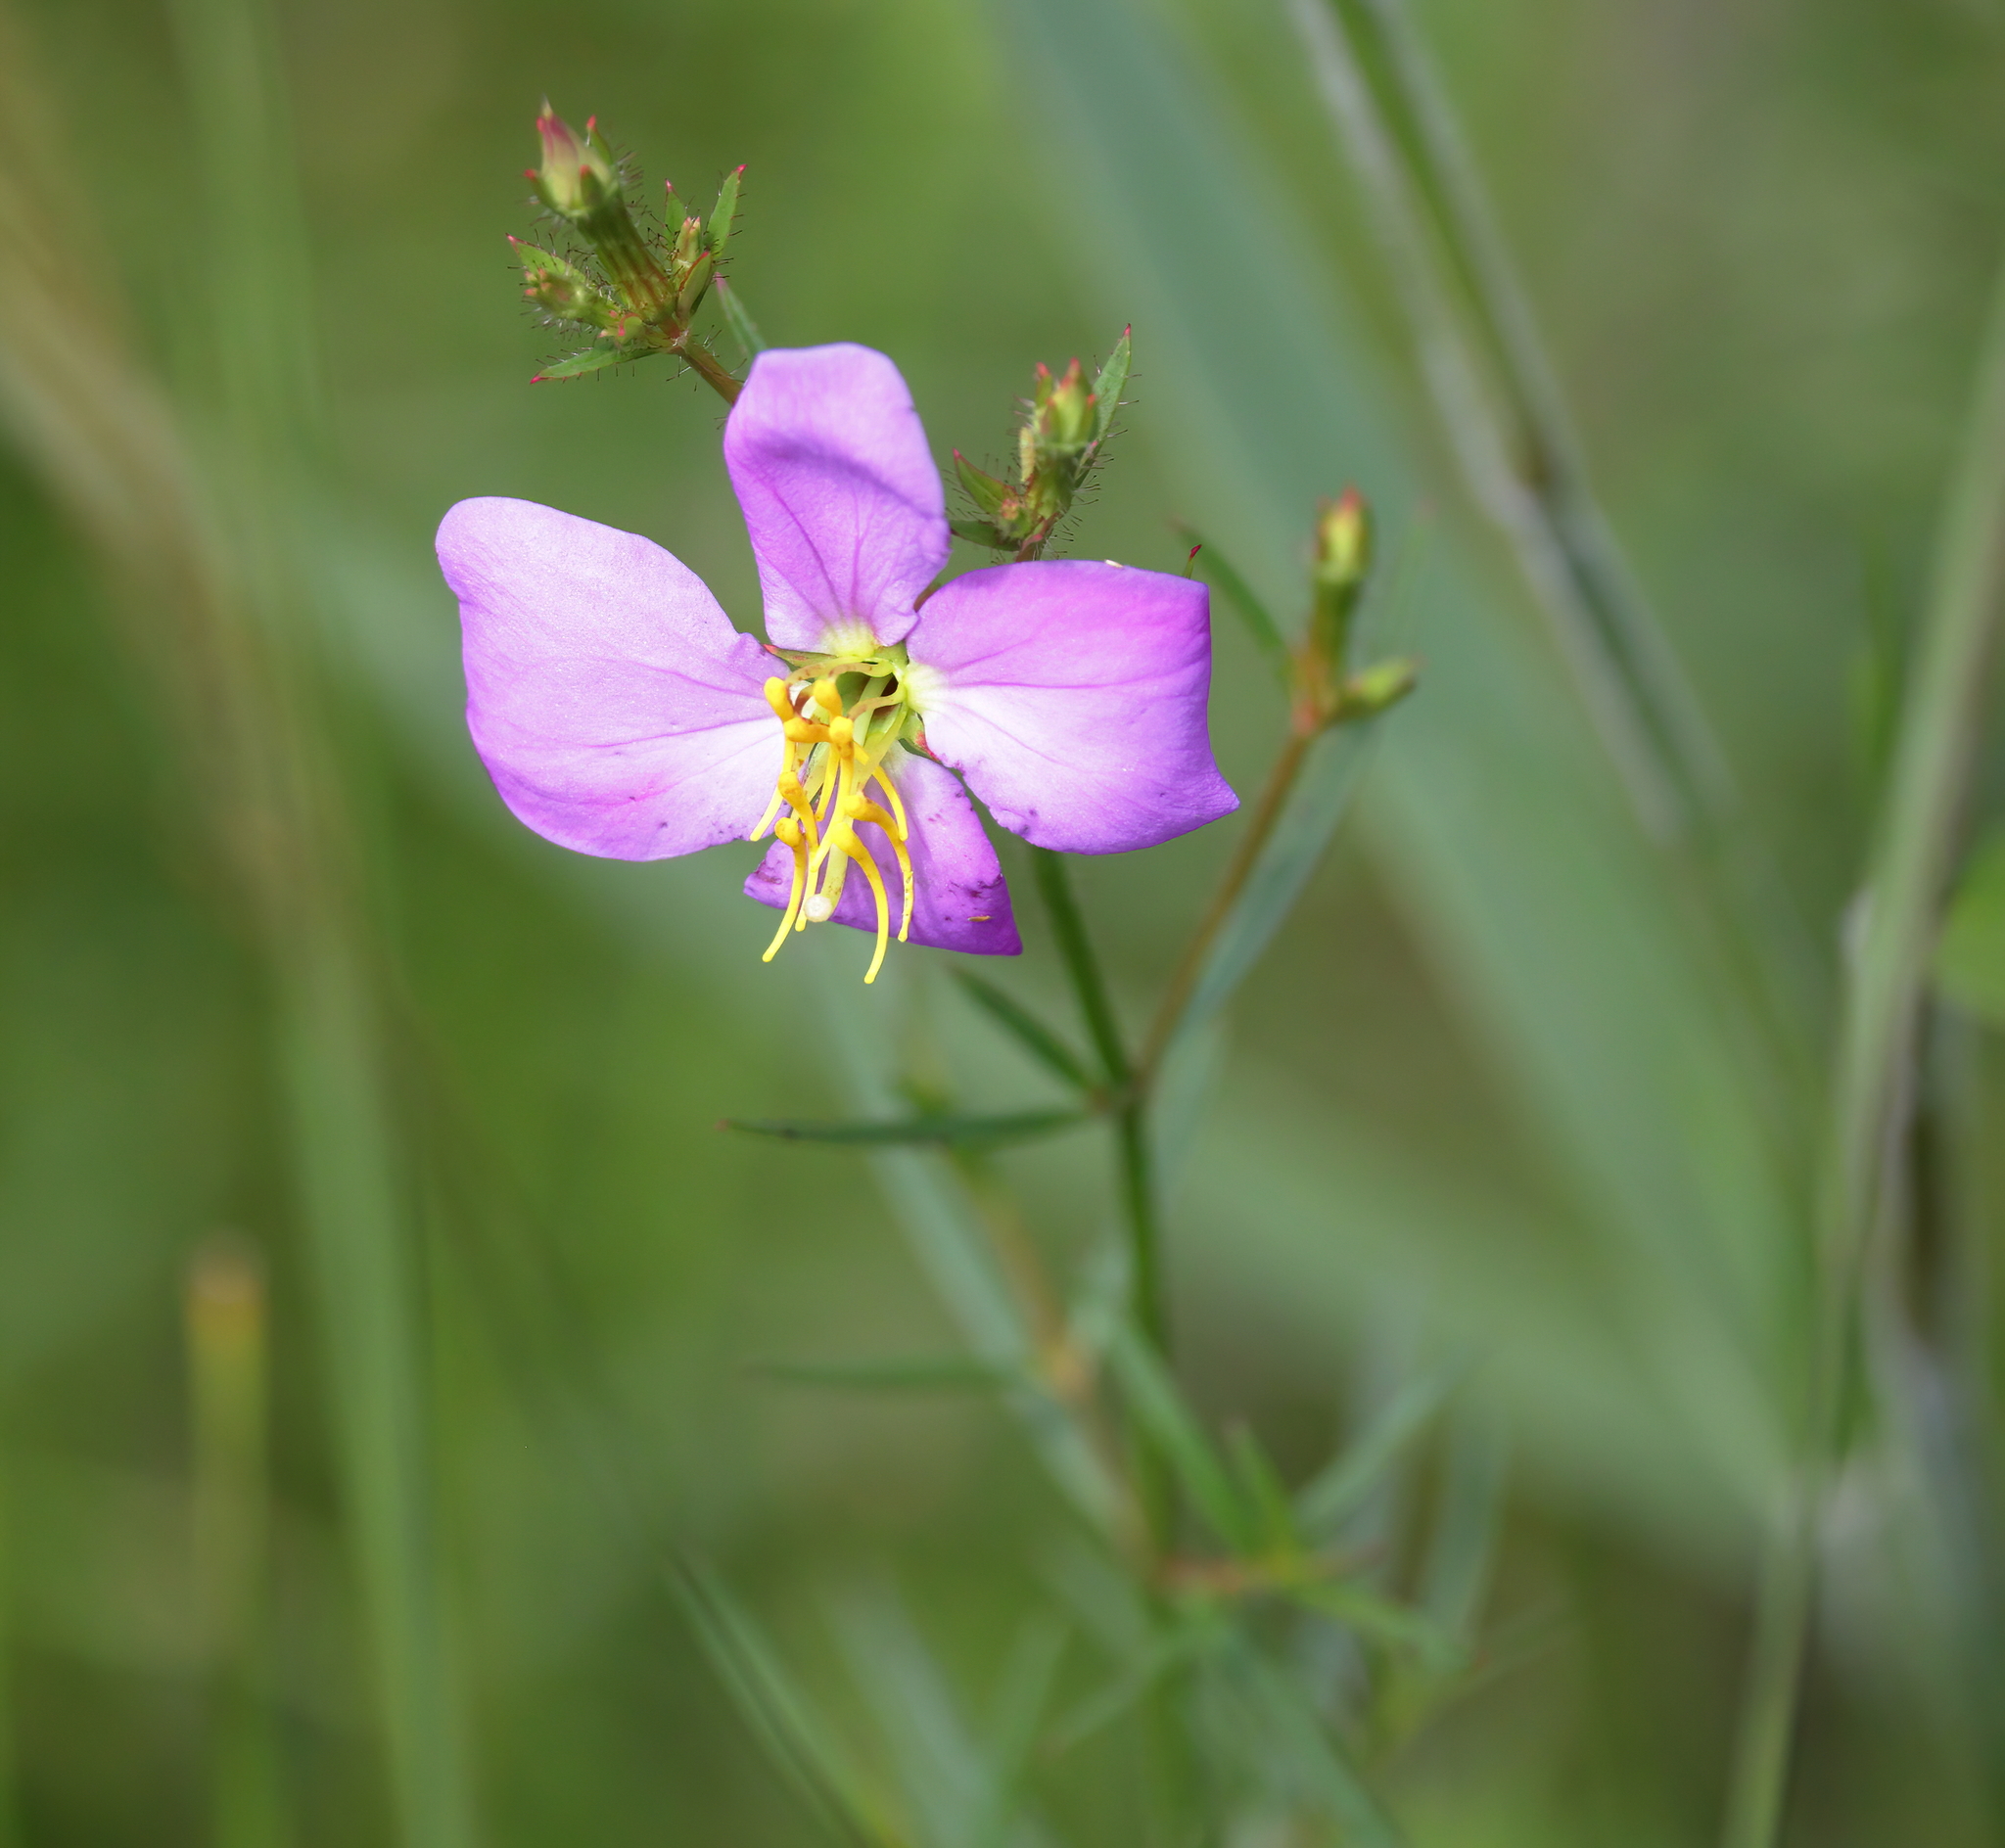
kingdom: Plantae
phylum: Tracheophyta
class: Magnoliopsida
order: Myrtales
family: Melastomataceae
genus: Rhexia
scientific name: Rhexia cubensis
